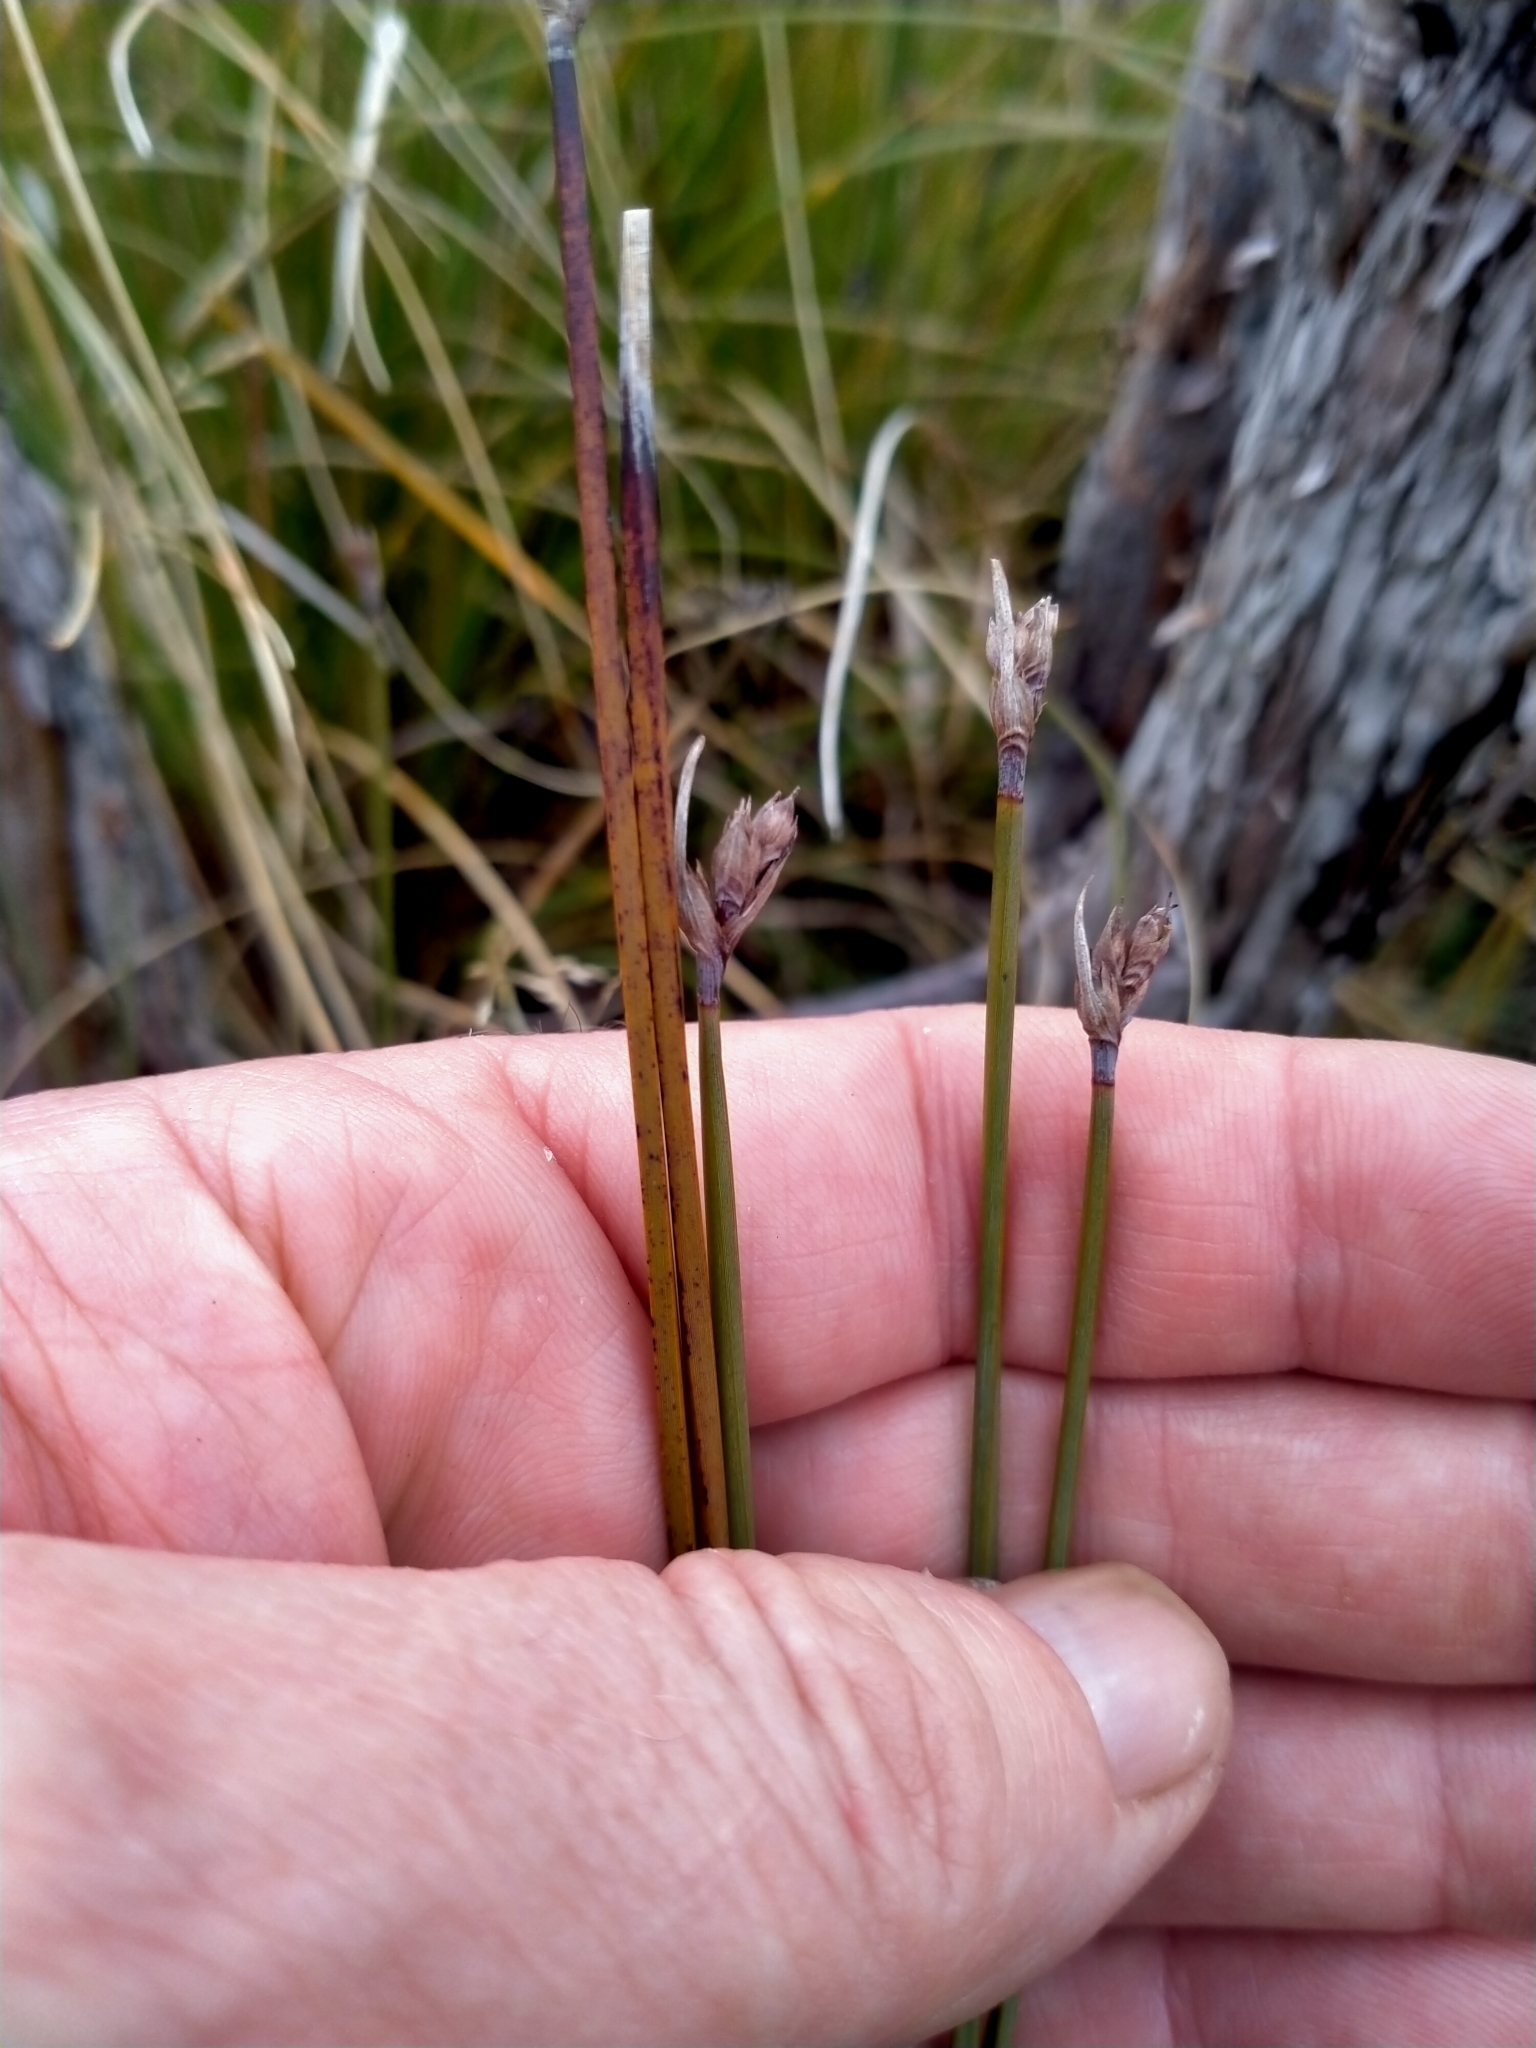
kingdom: Plantae
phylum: Tracheophyta
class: Liliopsida
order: Poales
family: Cyperaceae
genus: Lepidosperma
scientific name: Lepidosperma australe
